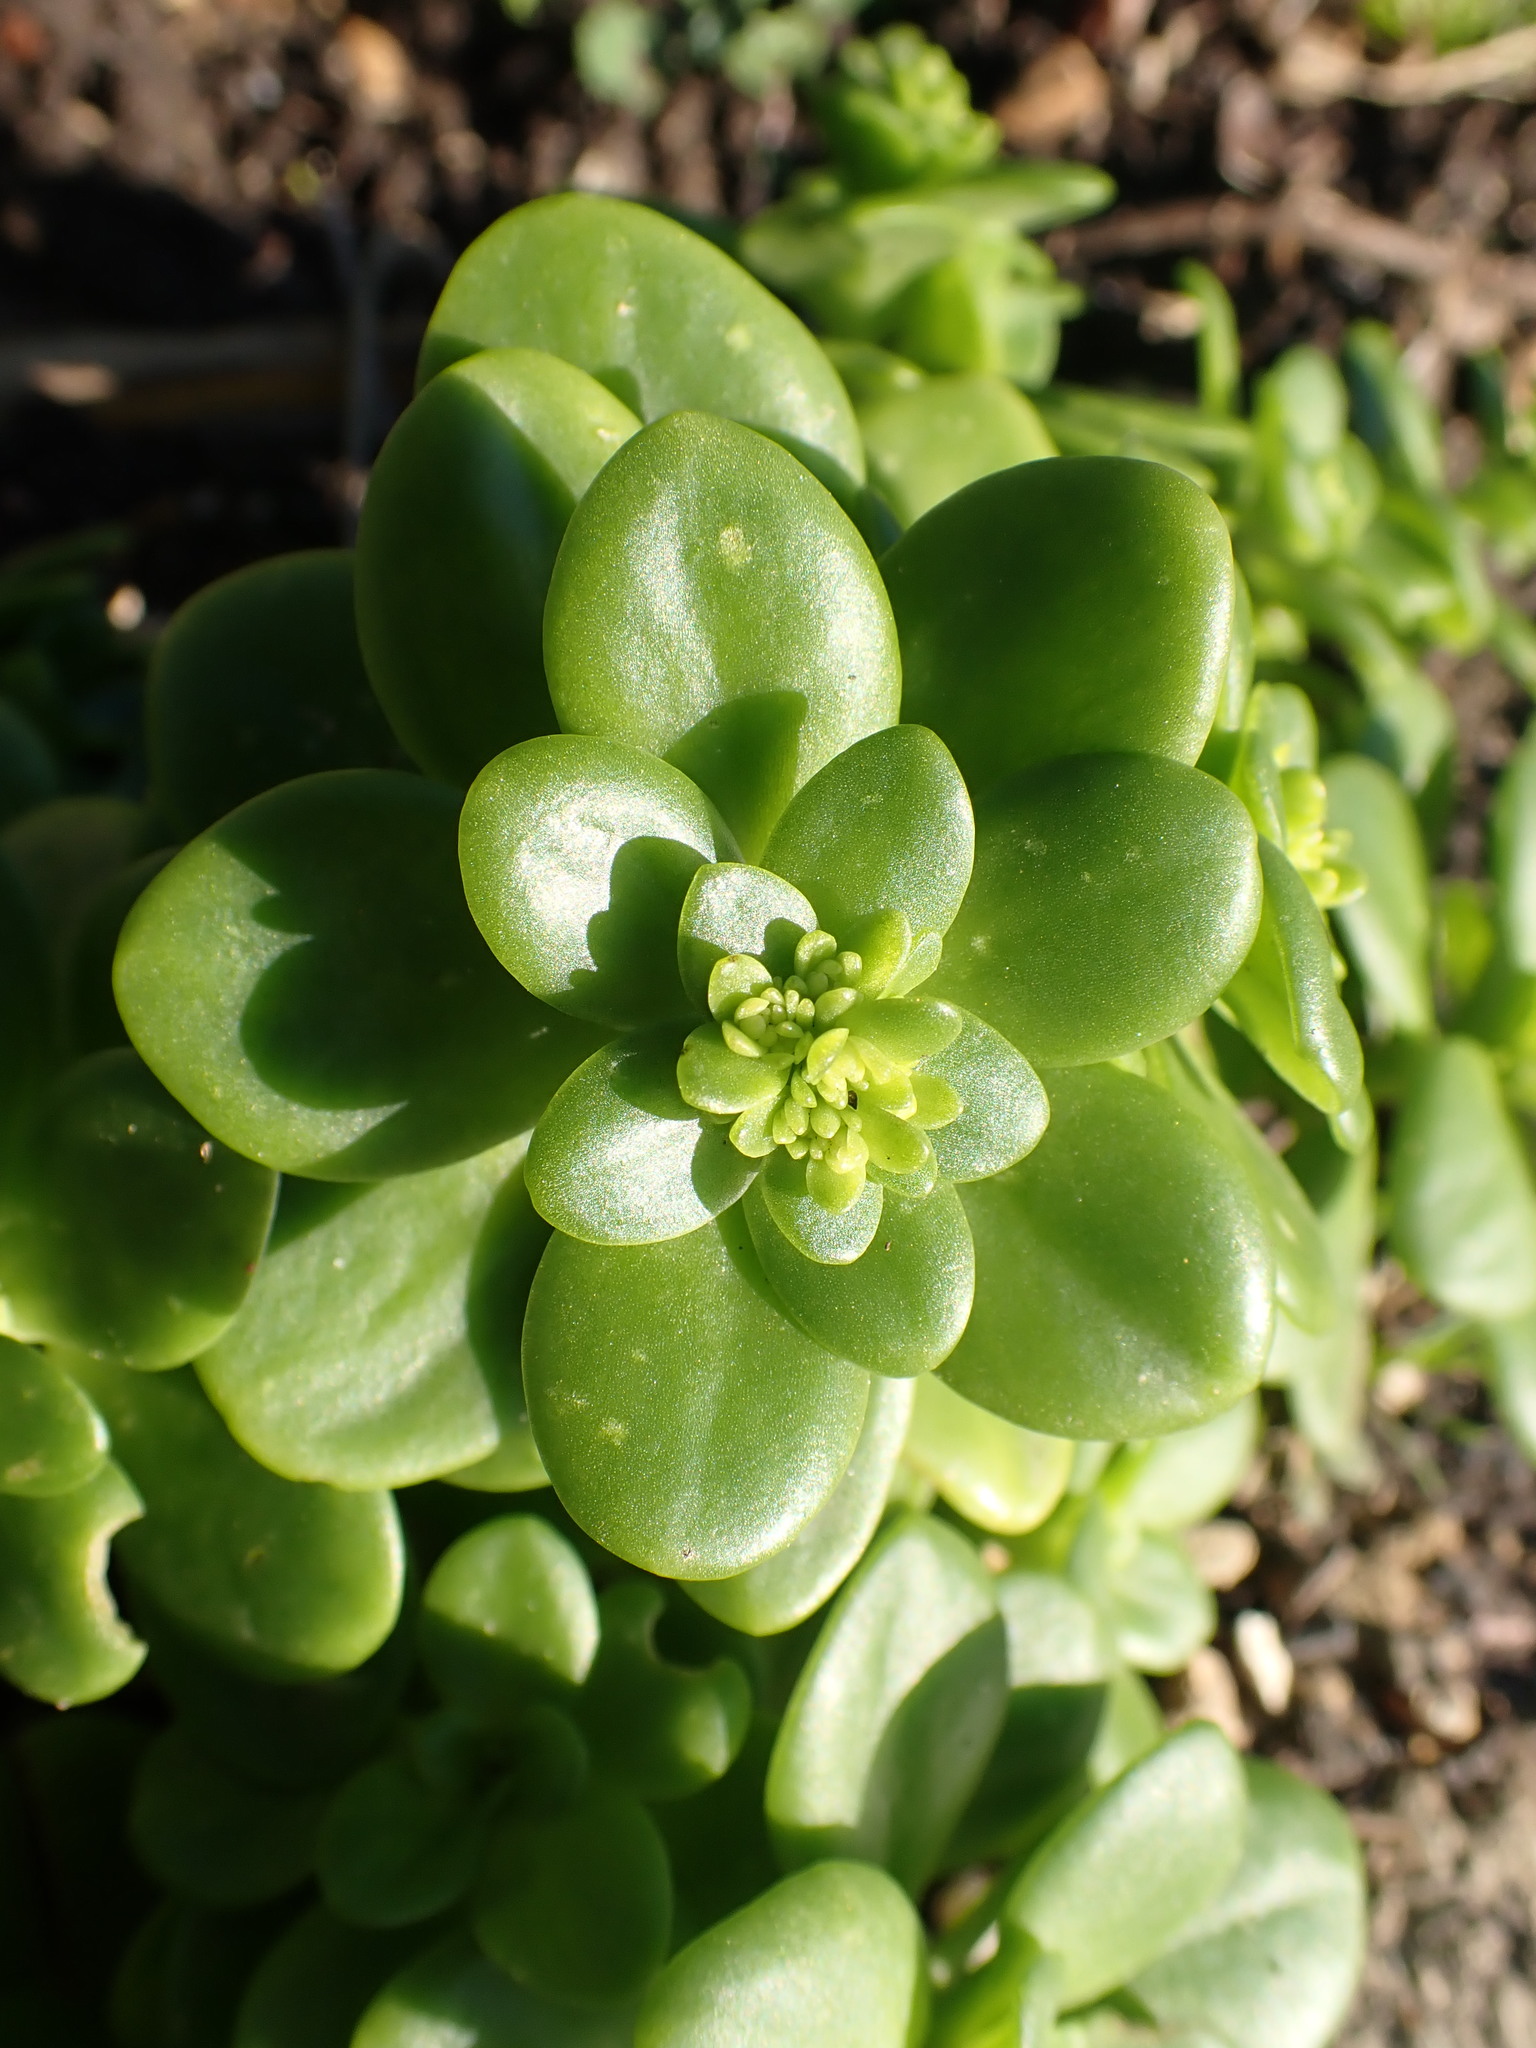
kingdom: Plantae
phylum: Tracheophyta
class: Magnoliopsida
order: Saxifragales
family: Crassulaceae
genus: Sedum
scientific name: Sedum confusum
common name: Lesser mexican-stonecrop
